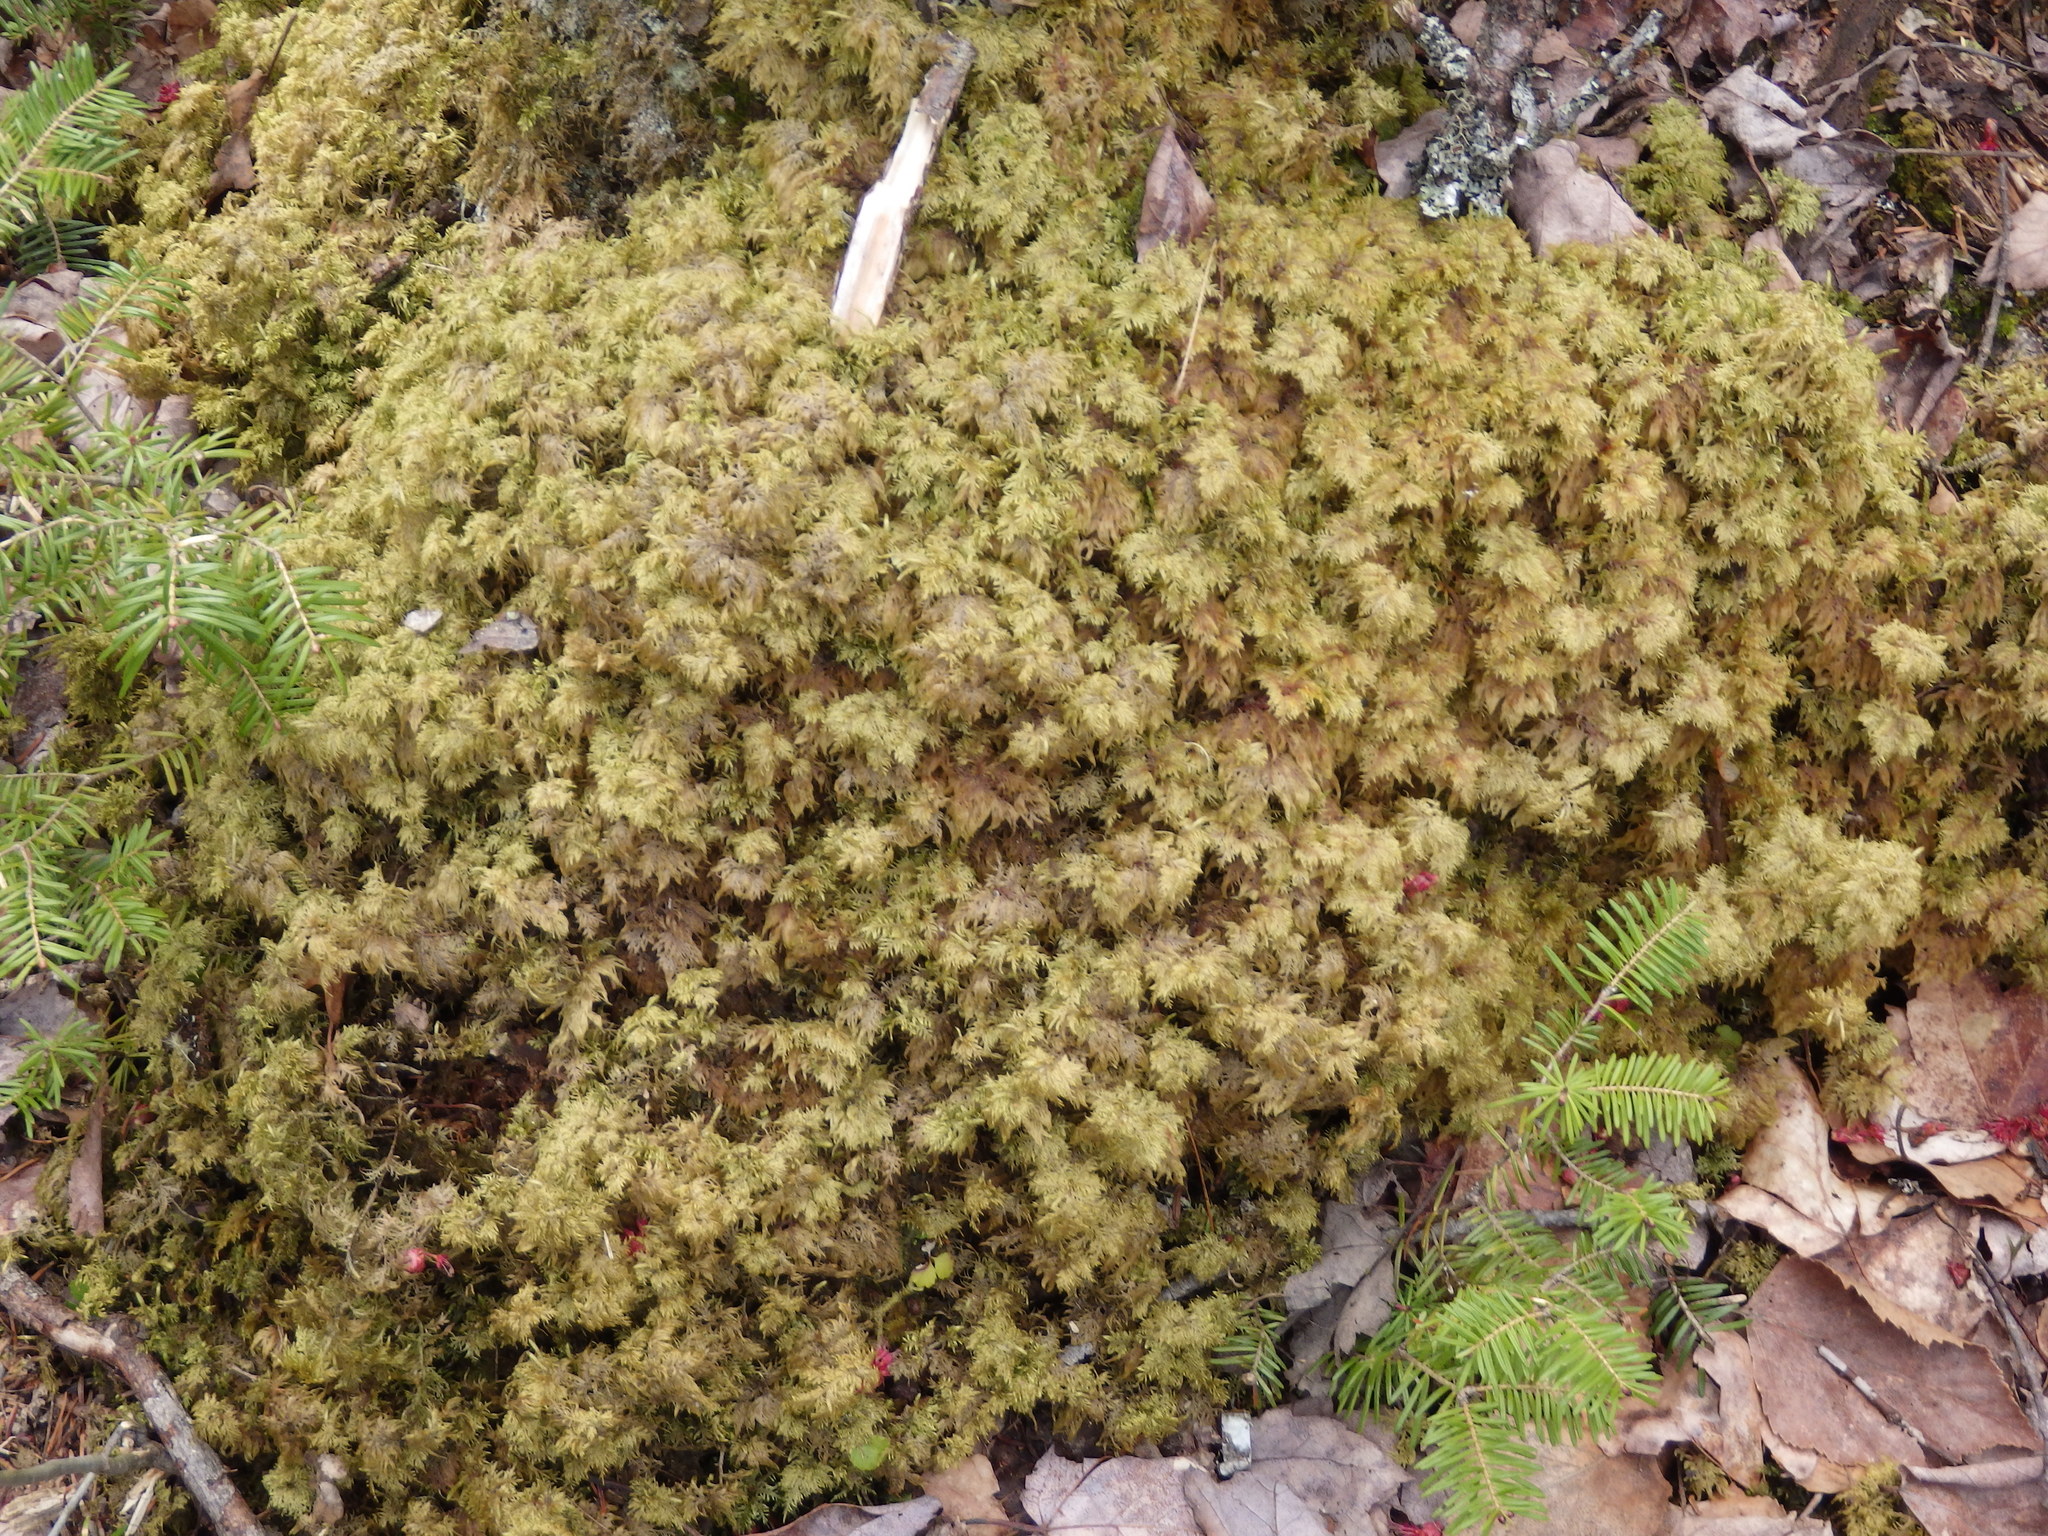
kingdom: Plantae
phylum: Bryophyta
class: Bryopsida
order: Hypnales
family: Hylocomiaceae
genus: Hylocomium
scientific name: Hylocomium splendens
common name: Stairstep moss
